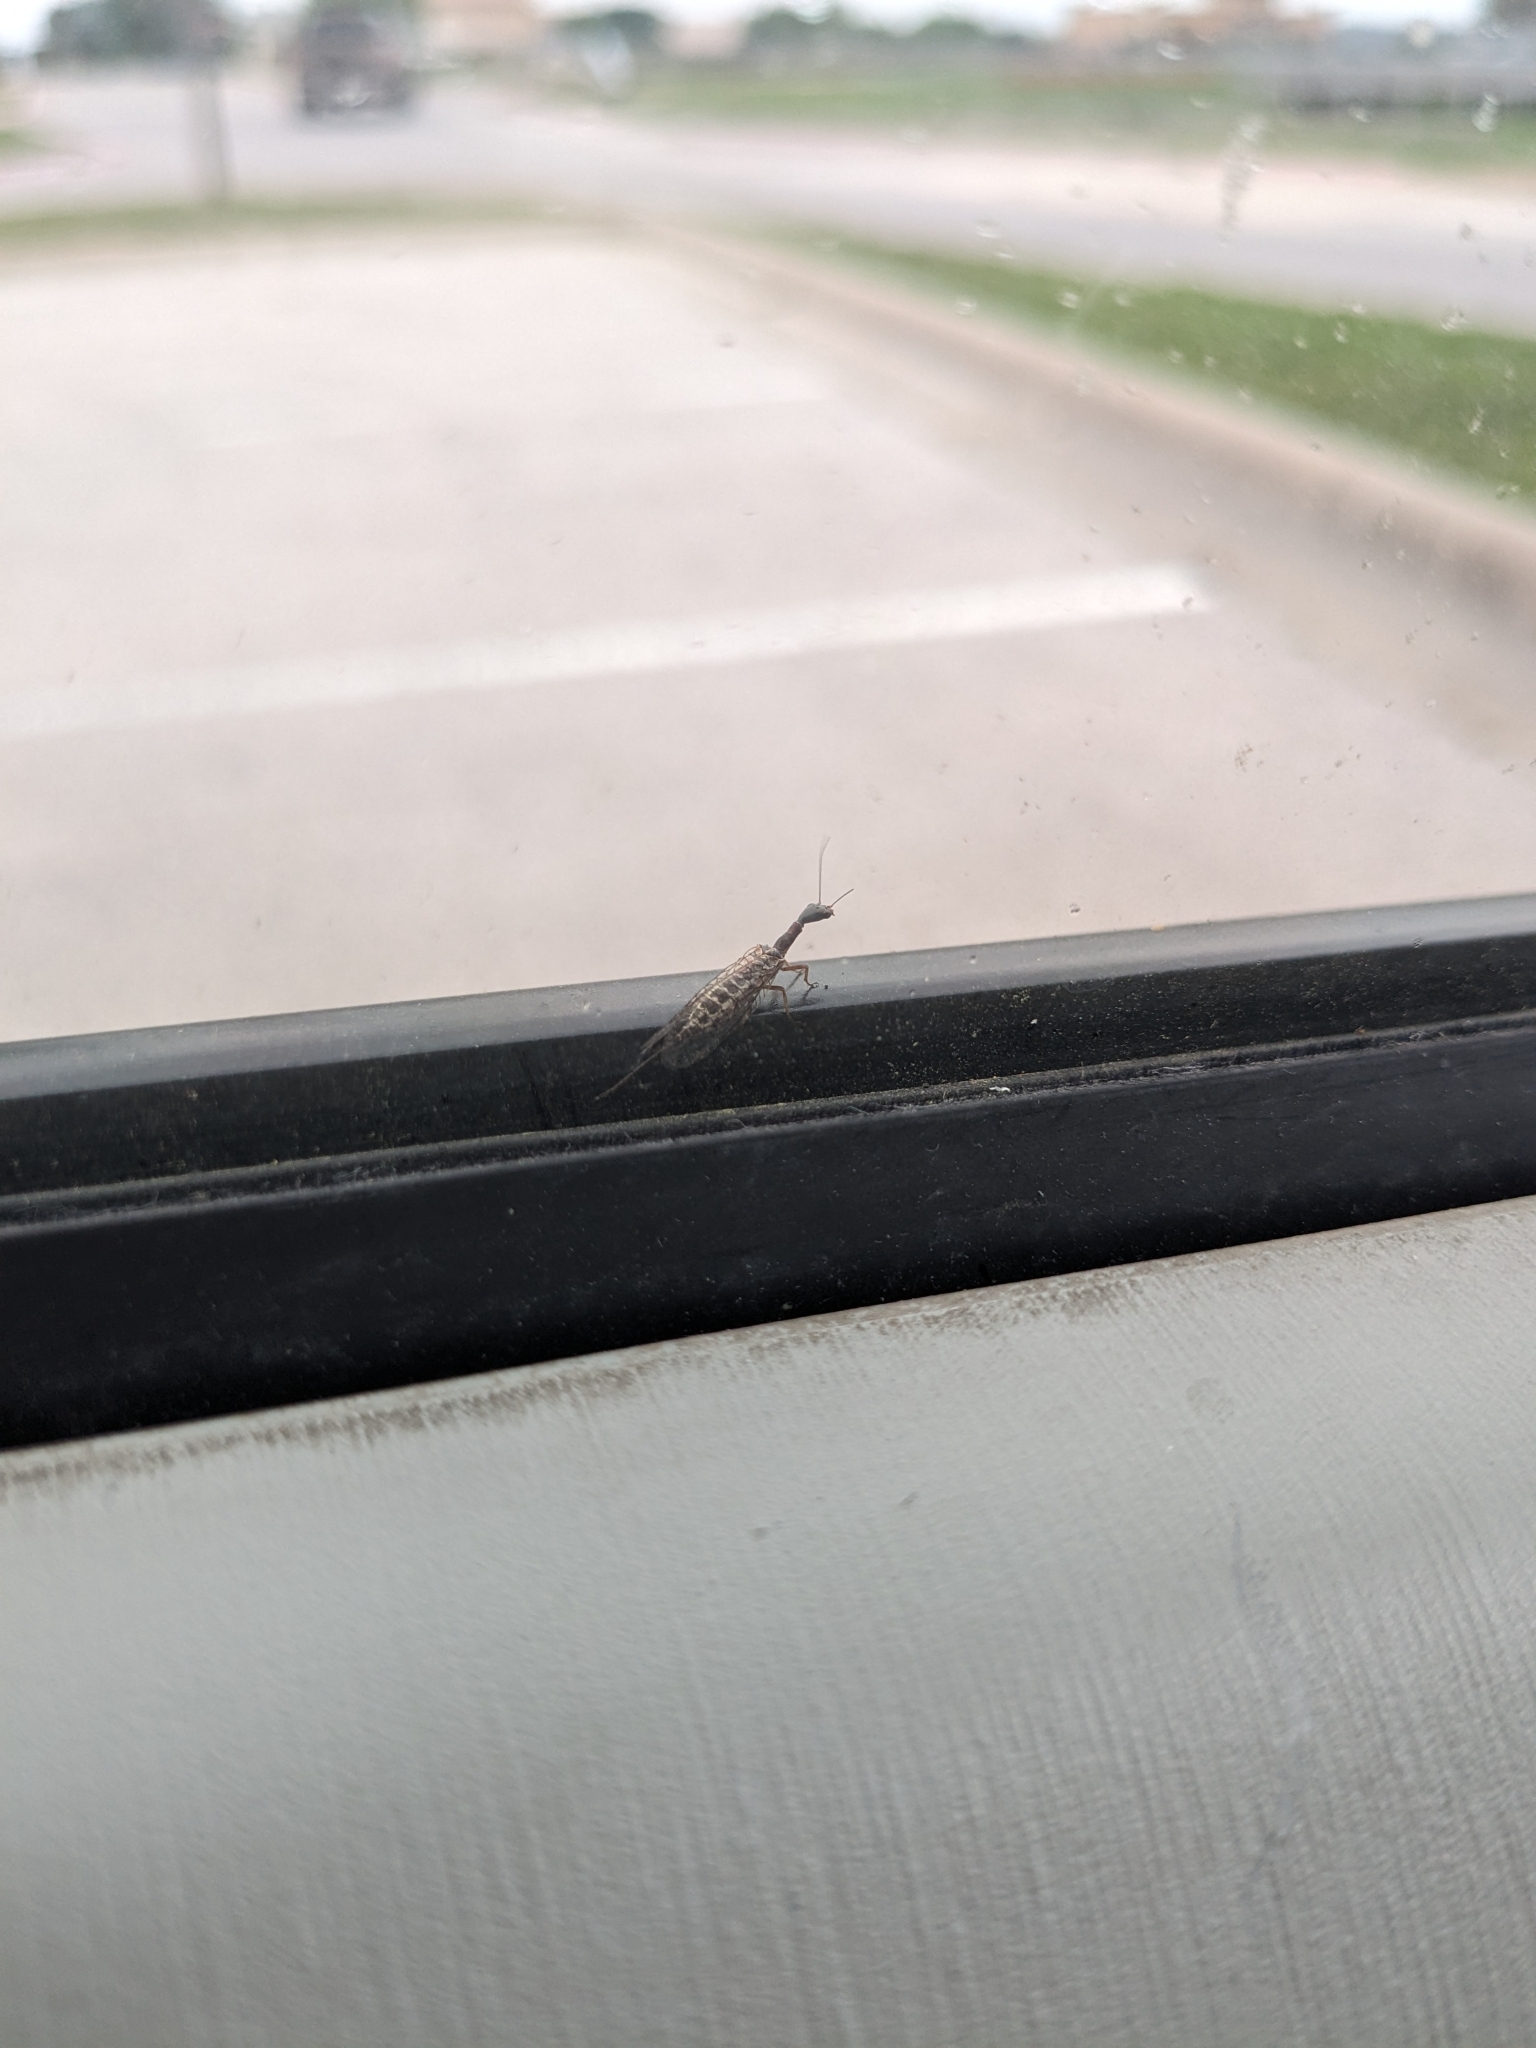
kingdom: Animalia
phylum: Arthropoda
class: Insecta
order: Raphidioptera
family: Raphidiidae
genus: Agulla
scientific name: Agulla bicolor
